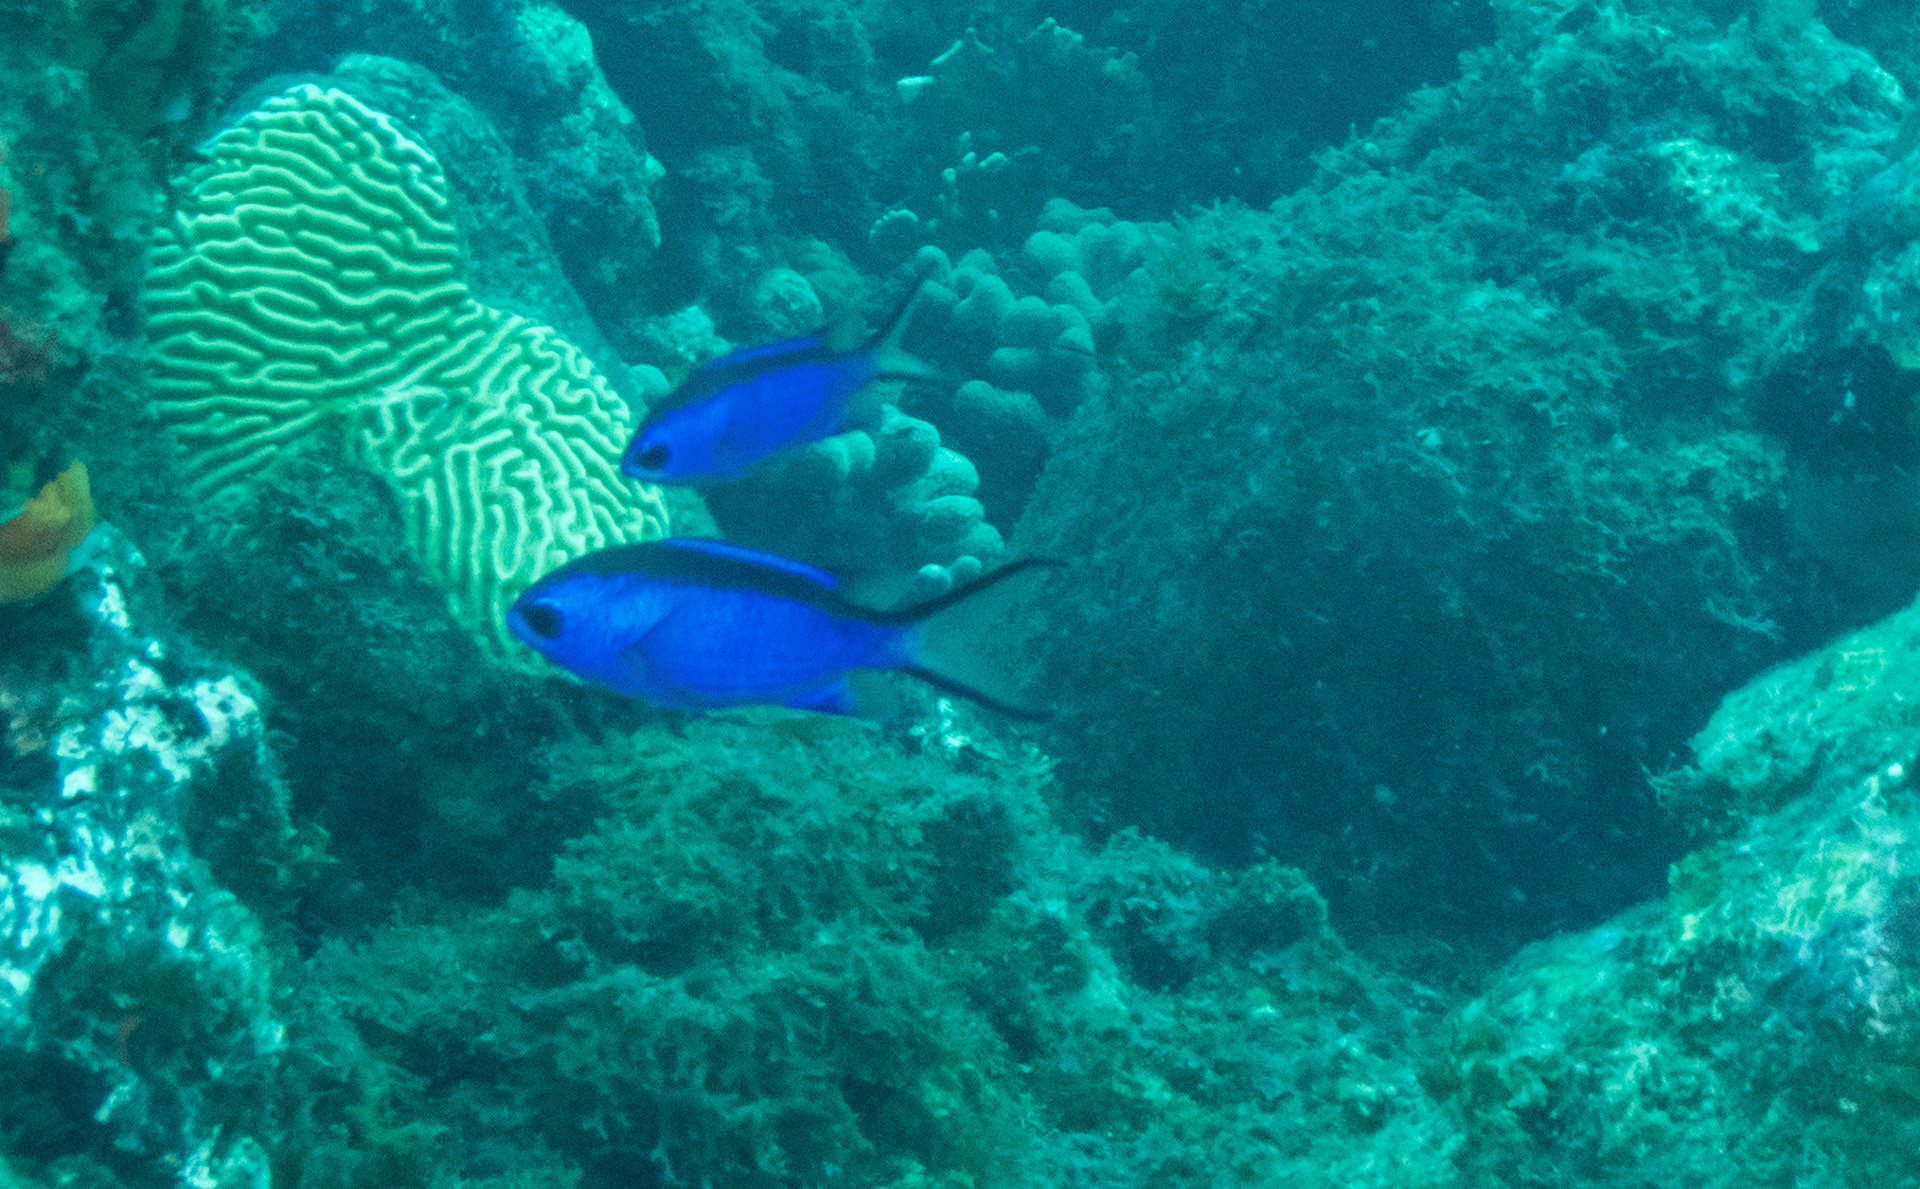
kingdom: Animalia
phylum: Chordata
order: Perciformes
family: Pomacentridae
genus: Chromis
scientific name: Chromis cyanea
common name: Blue chromis
